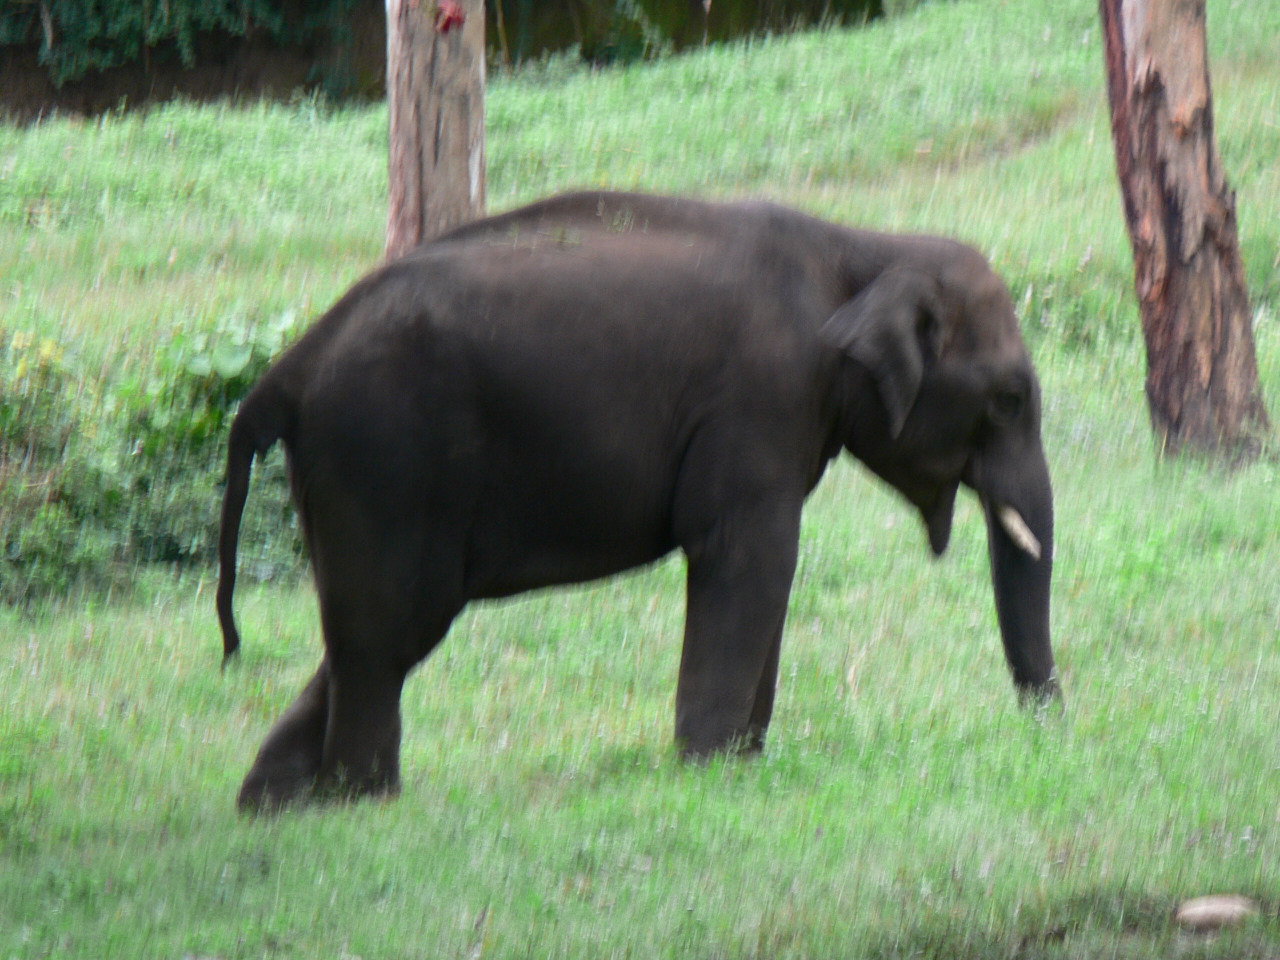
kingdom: Animalia
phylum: Chordata
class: Mammalia
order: Proboscidea
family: Elephantidae
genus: Elephas
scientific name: Elephas maximus
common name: Asian elephant
